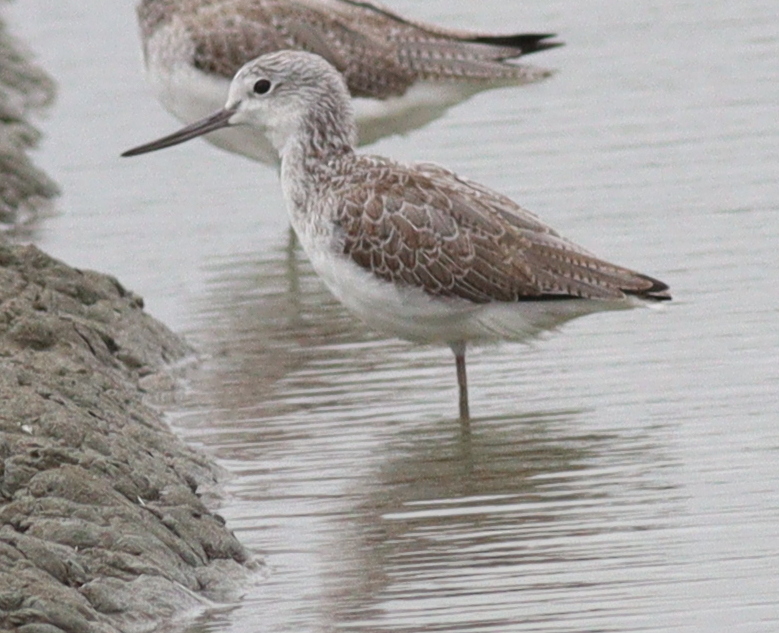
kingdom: Animalia
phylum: Chordata
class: Aves
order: Charadriiformes
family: Scolopacidae
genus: Tringa
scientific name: Tringa nebularia
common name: Common greenshank
